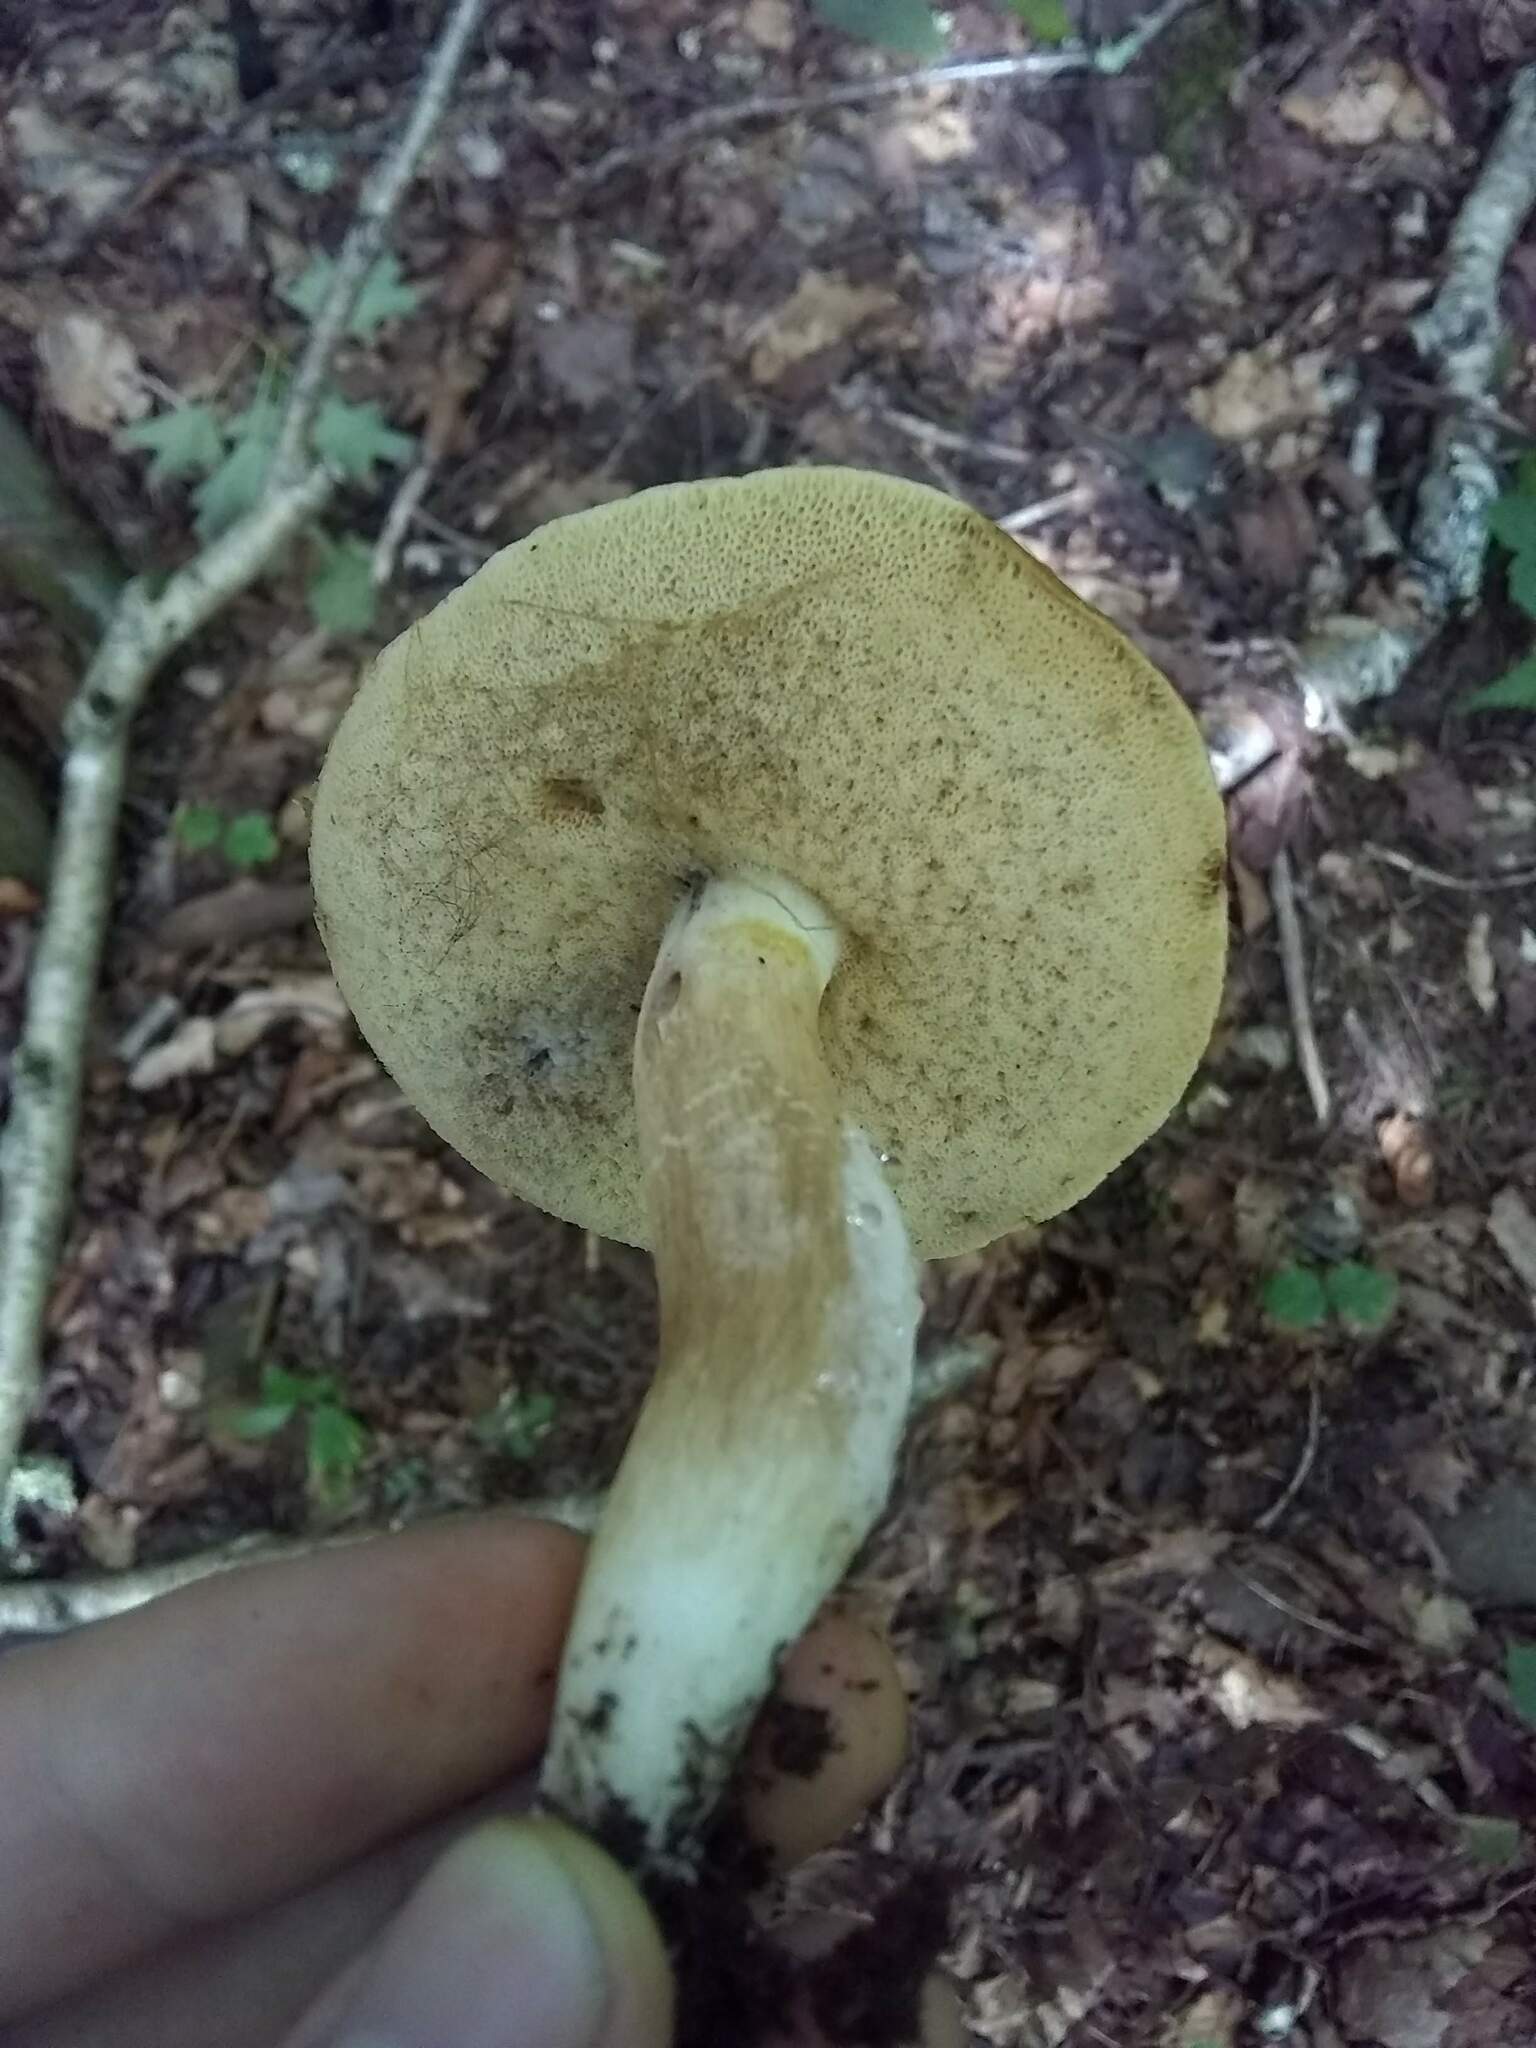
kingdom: Fungi
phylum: Basidiomycota
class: Agaricomycetes
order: Boletales
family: Boletaceae
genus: Xanthoconium
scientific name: Xanthoconium affine
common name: Spotted bolete
